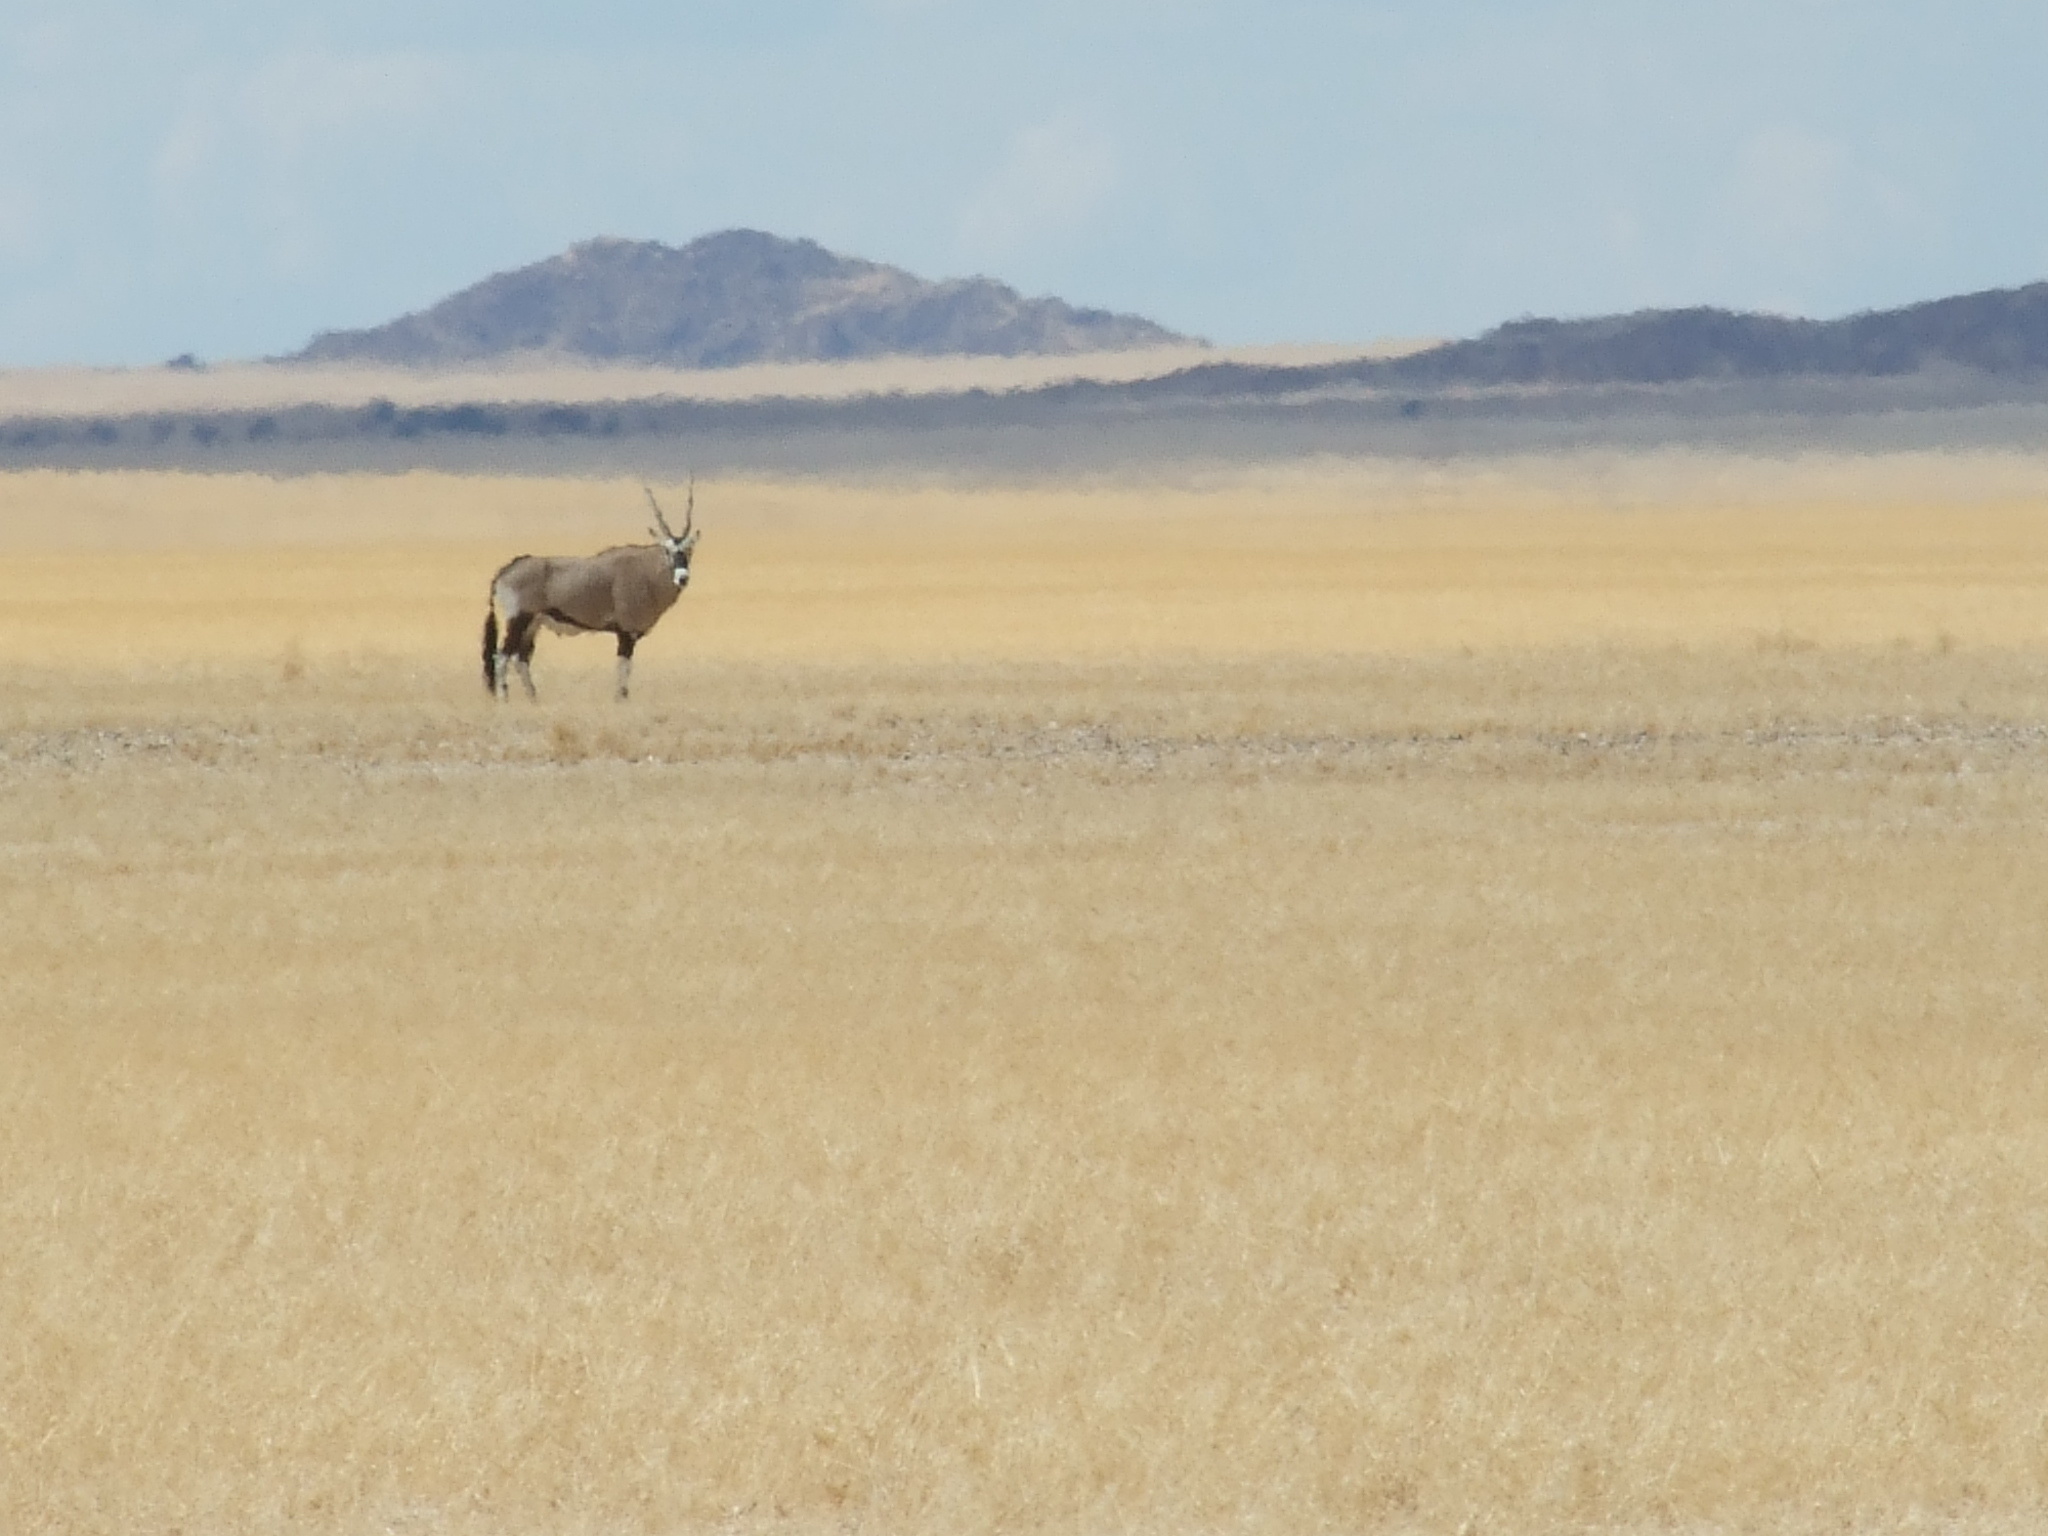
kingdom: Animalia
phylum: Chordata
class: Mammalia
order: Artiodactyla
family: Bovidae
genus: Oryx
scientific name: Oryx gazella
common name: Gemsbok
